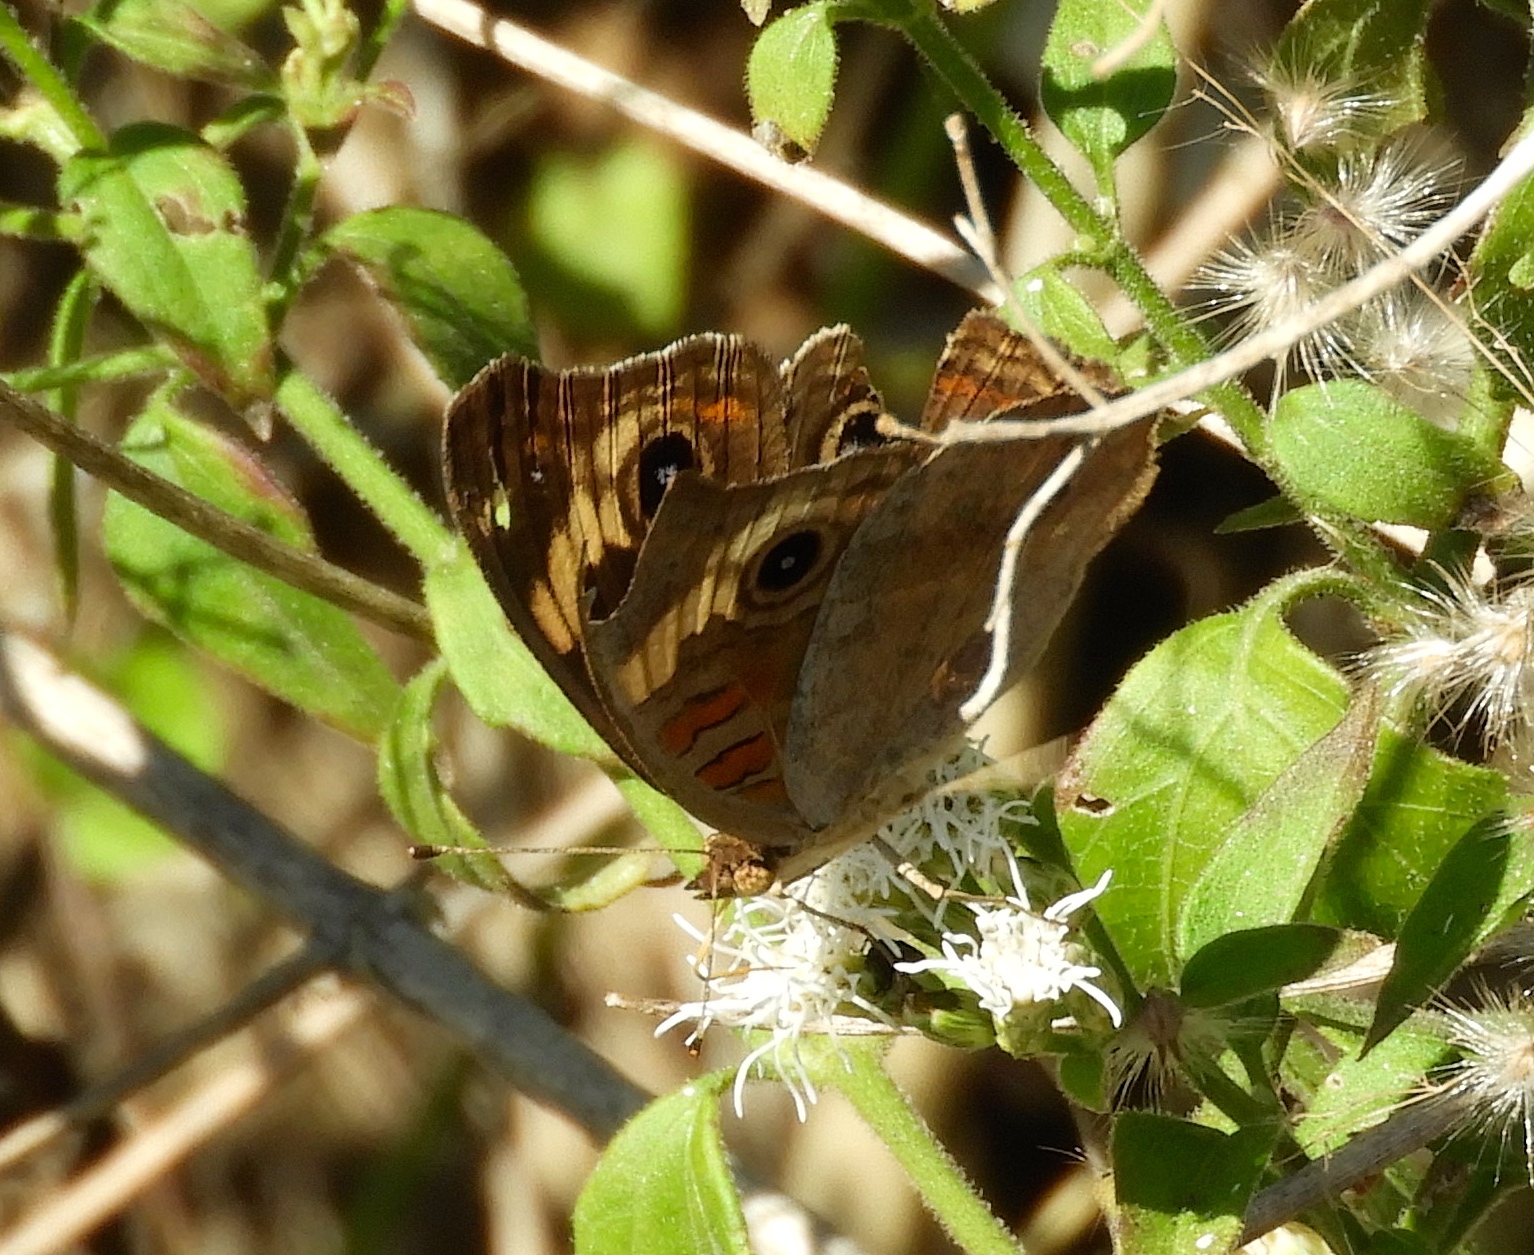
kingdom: Animalia
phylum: Arthropoda
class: Insecta
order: Lepidoptera
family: Nymphalidae
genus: Junonia
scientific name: Junonia pacoma
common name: Pacific mangrove buckeye
